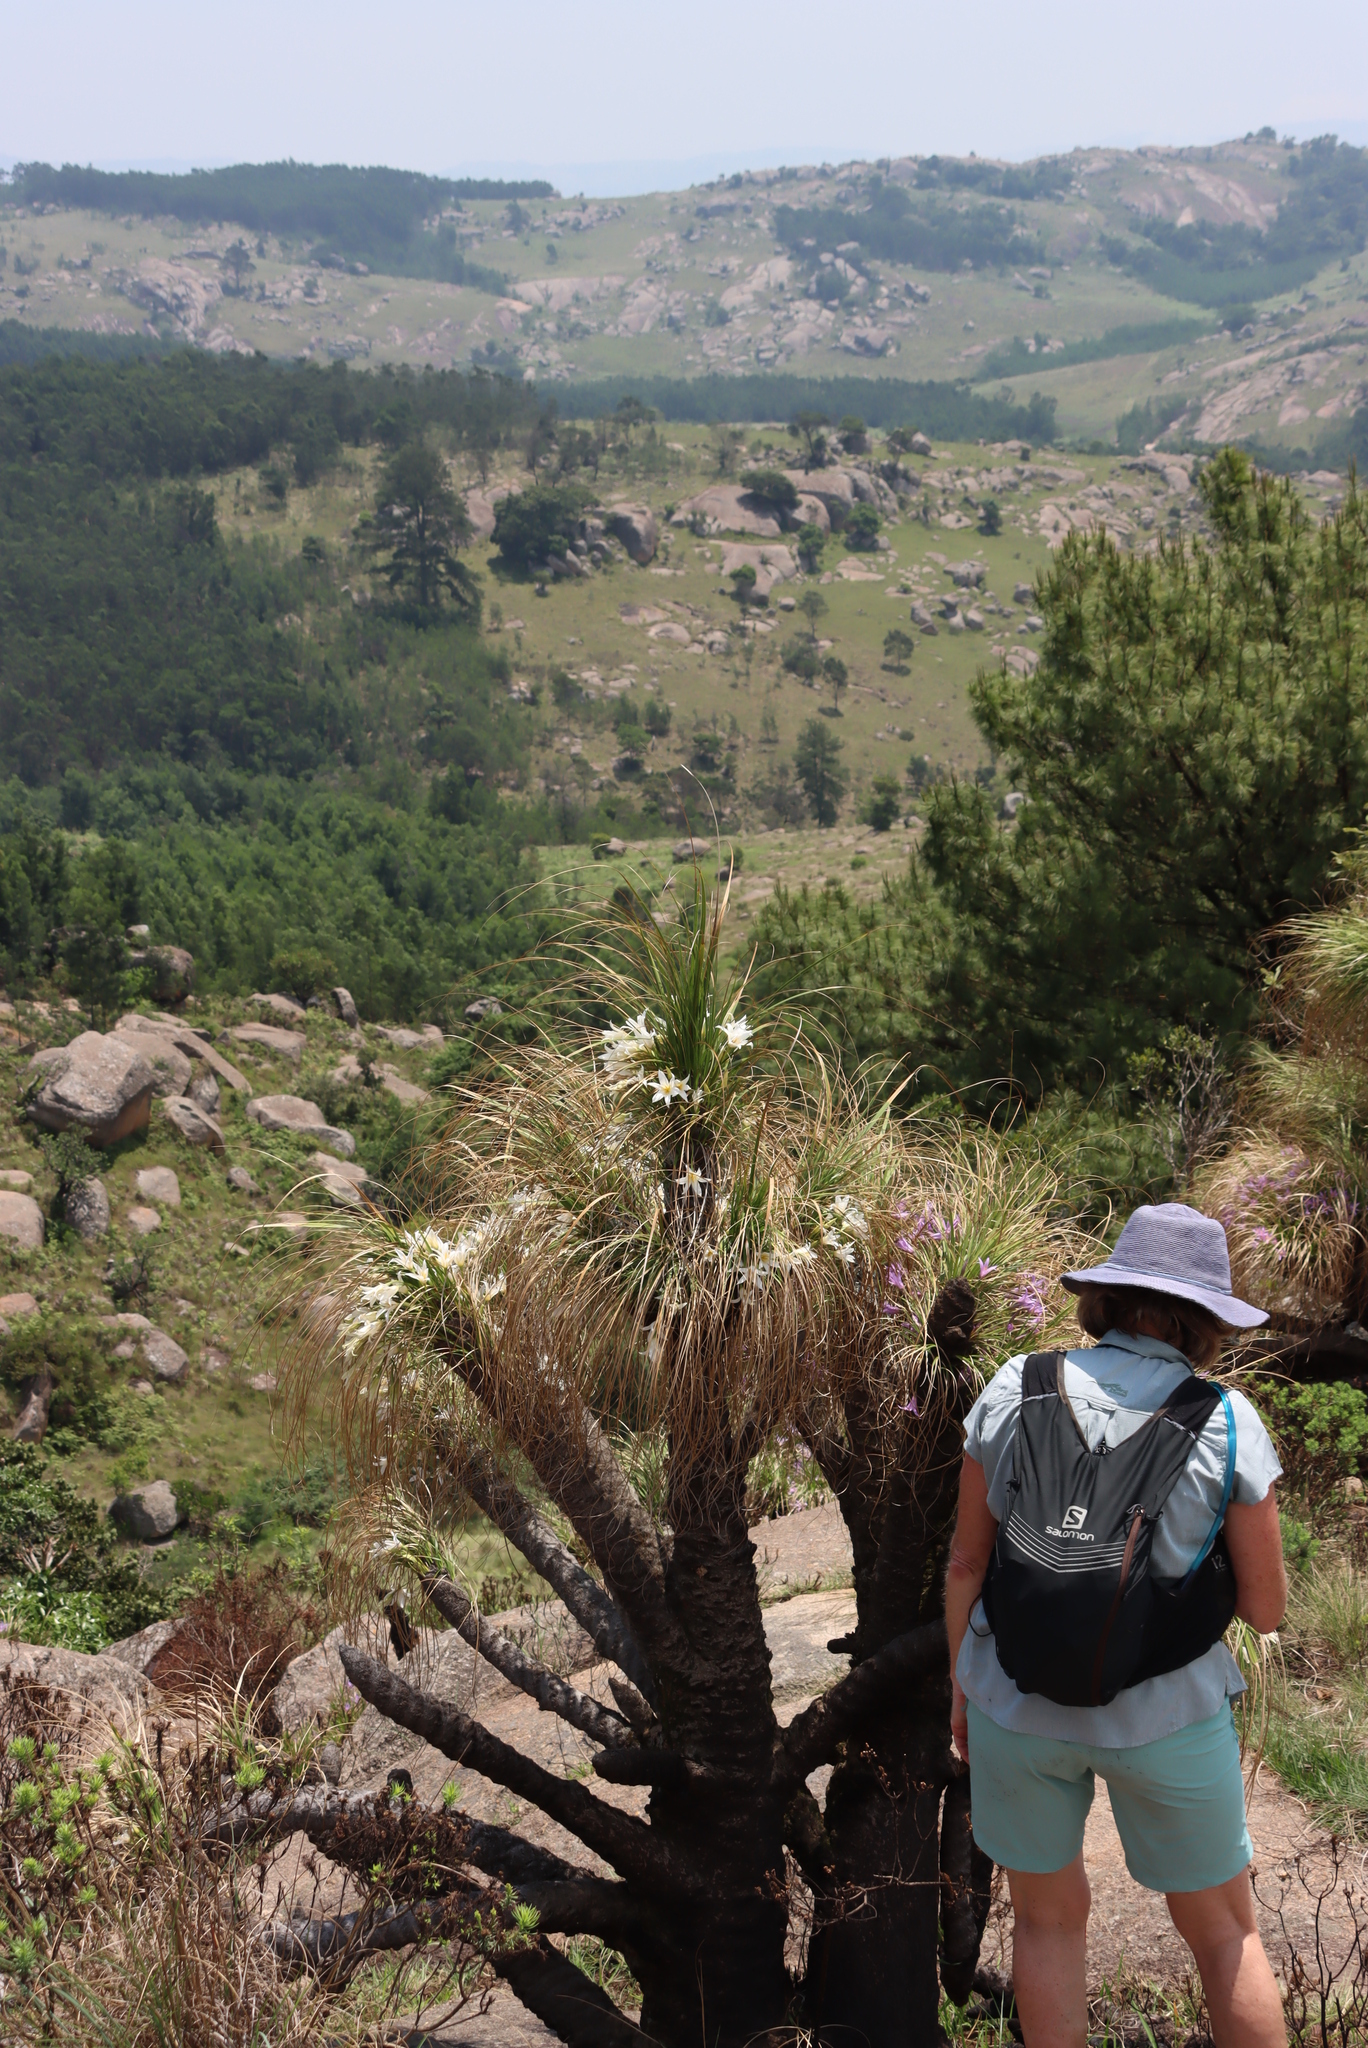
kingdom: Plantae
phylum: Tracheophyta
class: Liliopsida
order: Pandanales
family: Velloziaceae
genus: Xerophyta
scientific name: Xerophyta retinervis
